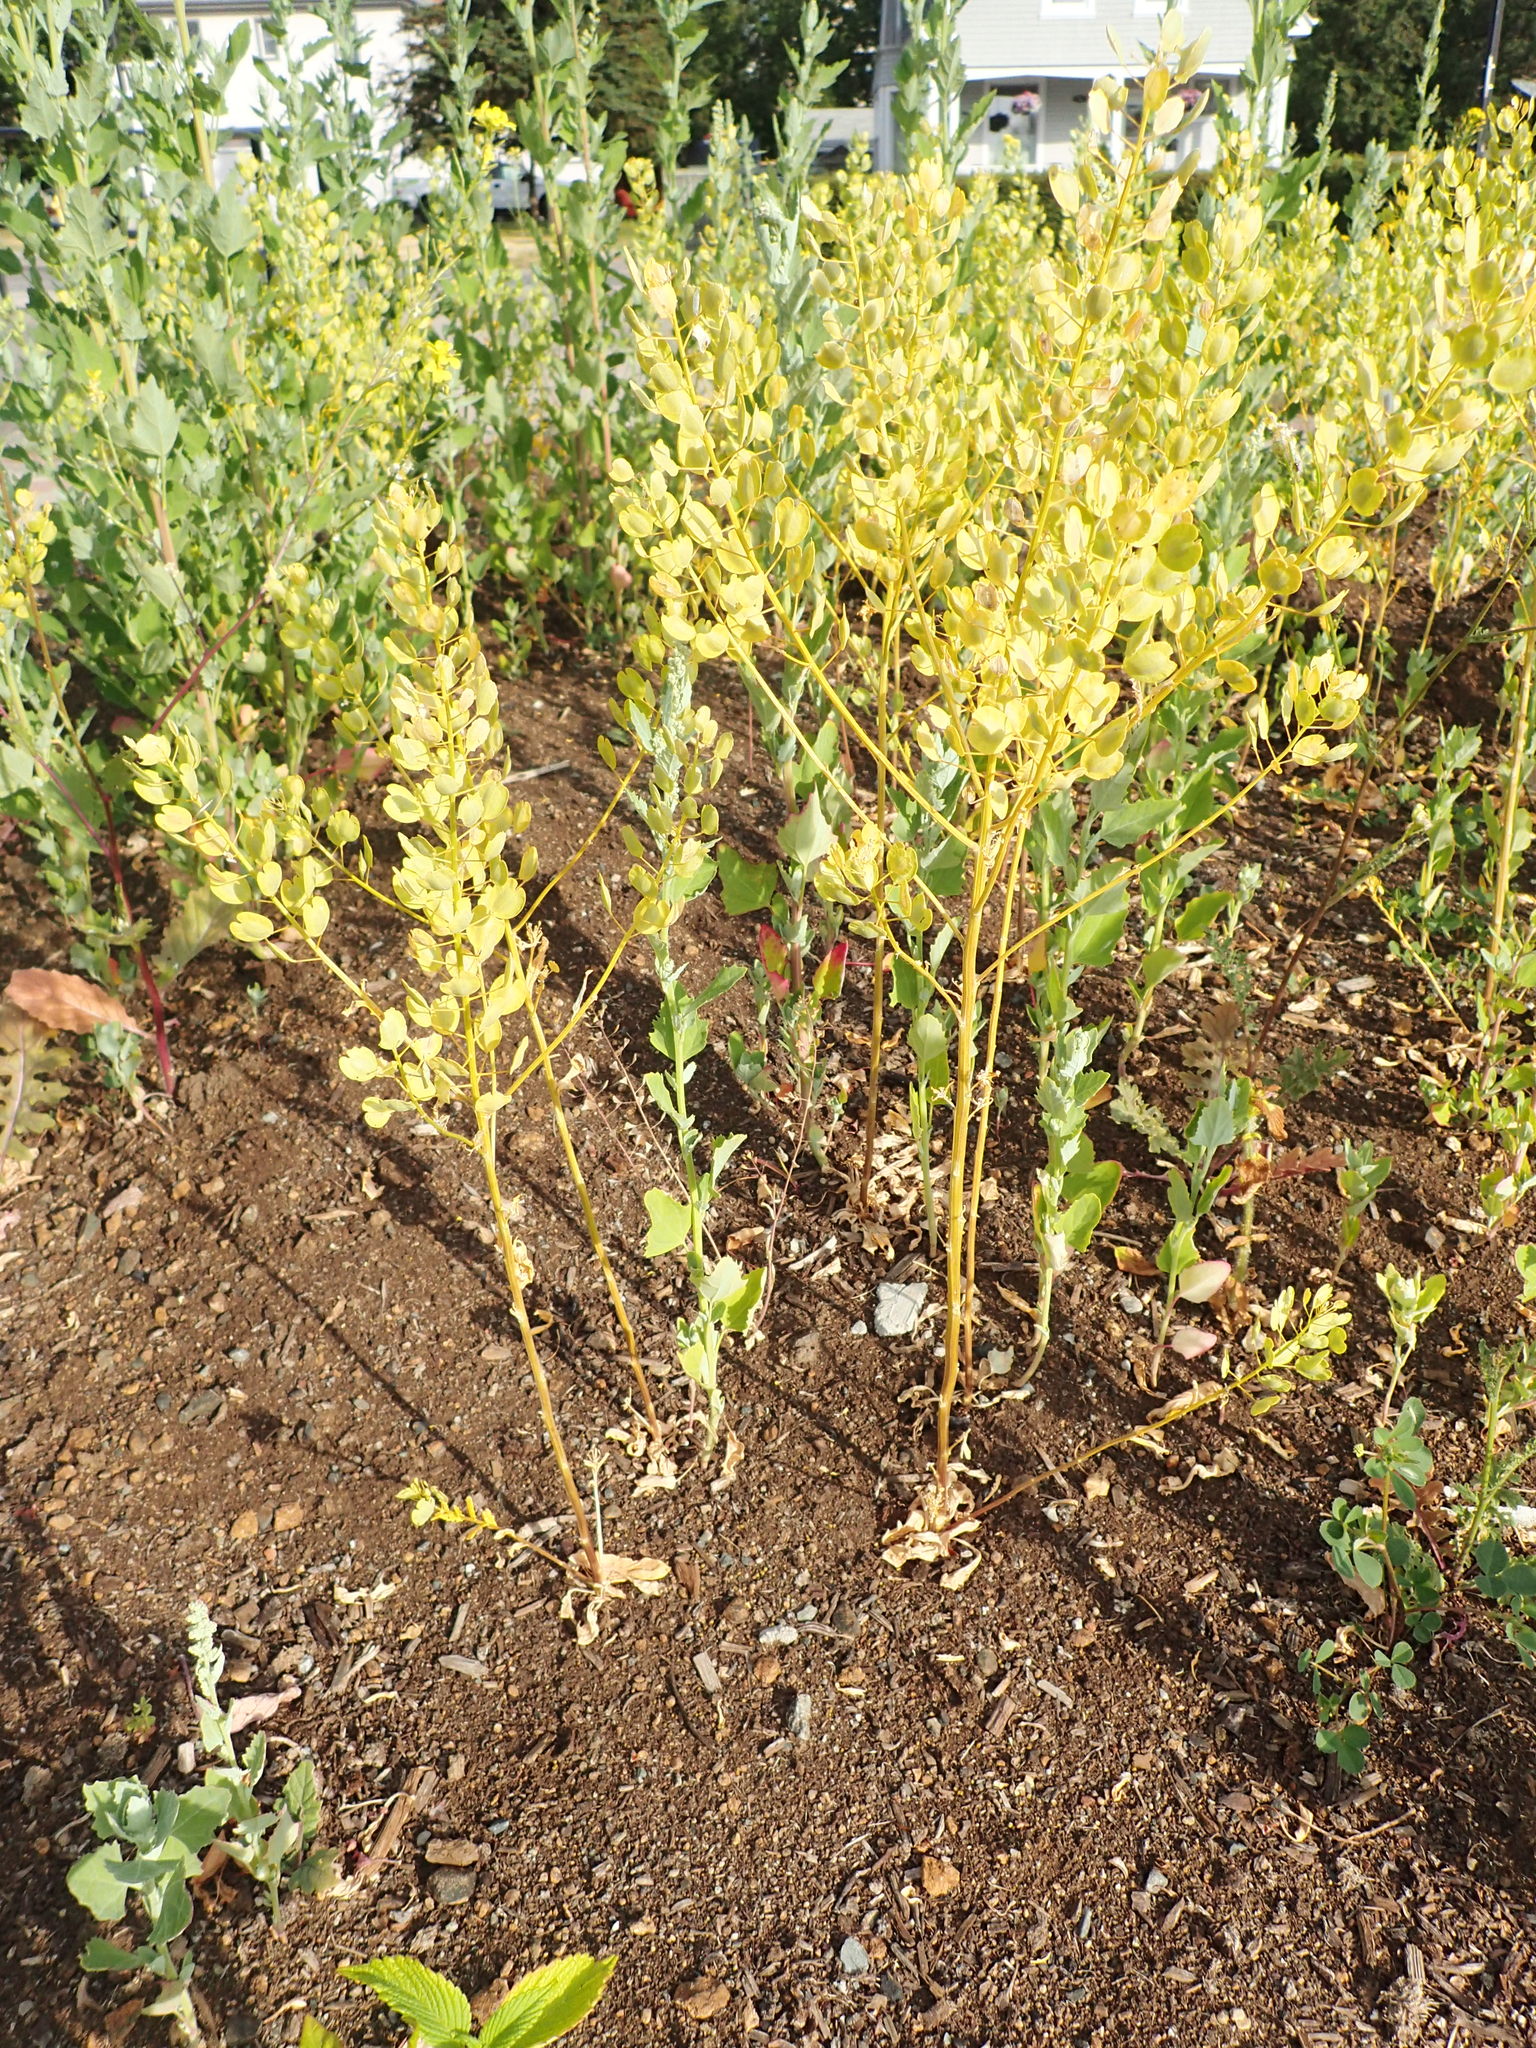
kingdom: Plantae
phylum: Tracheophyta
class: Magnoliopsida
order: Brassicales
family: Brassicaceae
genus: Thlaspi
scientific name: Thlaspi arvense
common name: Field pennycress
